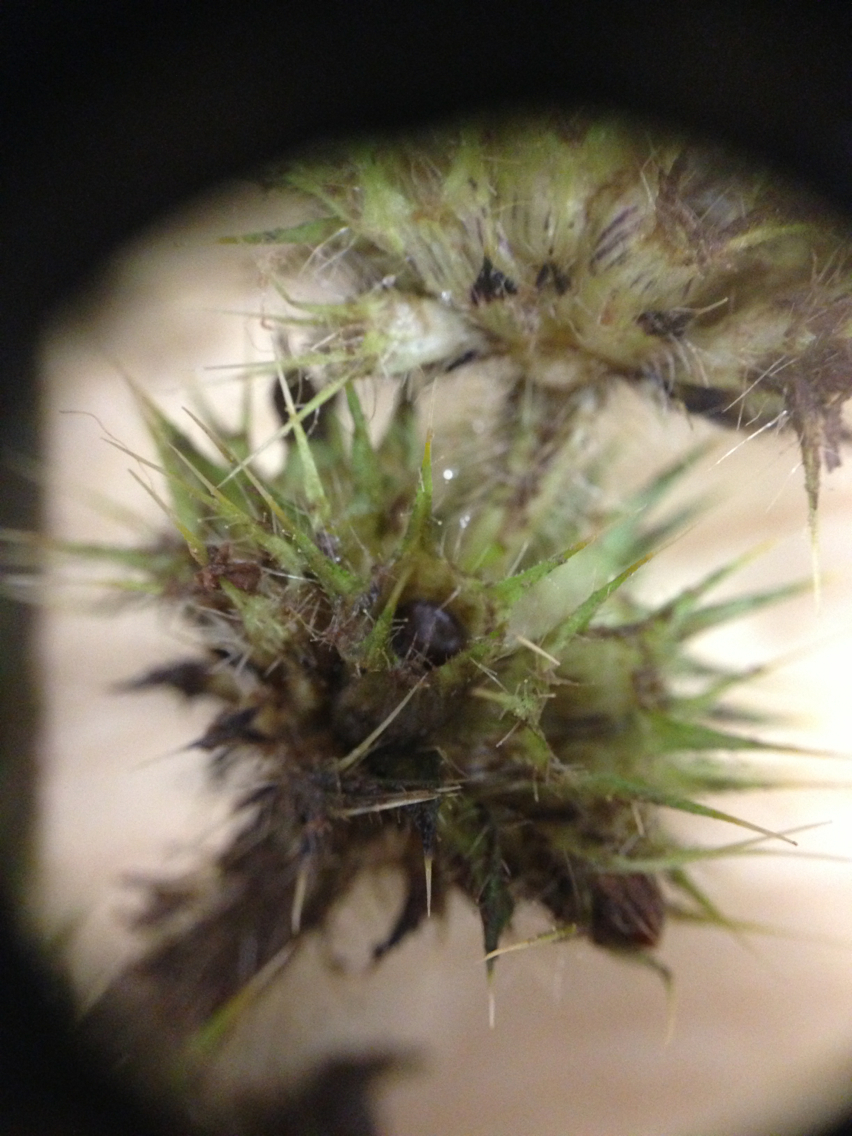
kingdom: Plantae
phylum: Tracheophyta
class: Magnoliopsida
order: Lamiales
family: Lamiaceae
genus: Galeopsis
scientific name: Galeopsis bifida
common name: Bifid hemp-nettle
